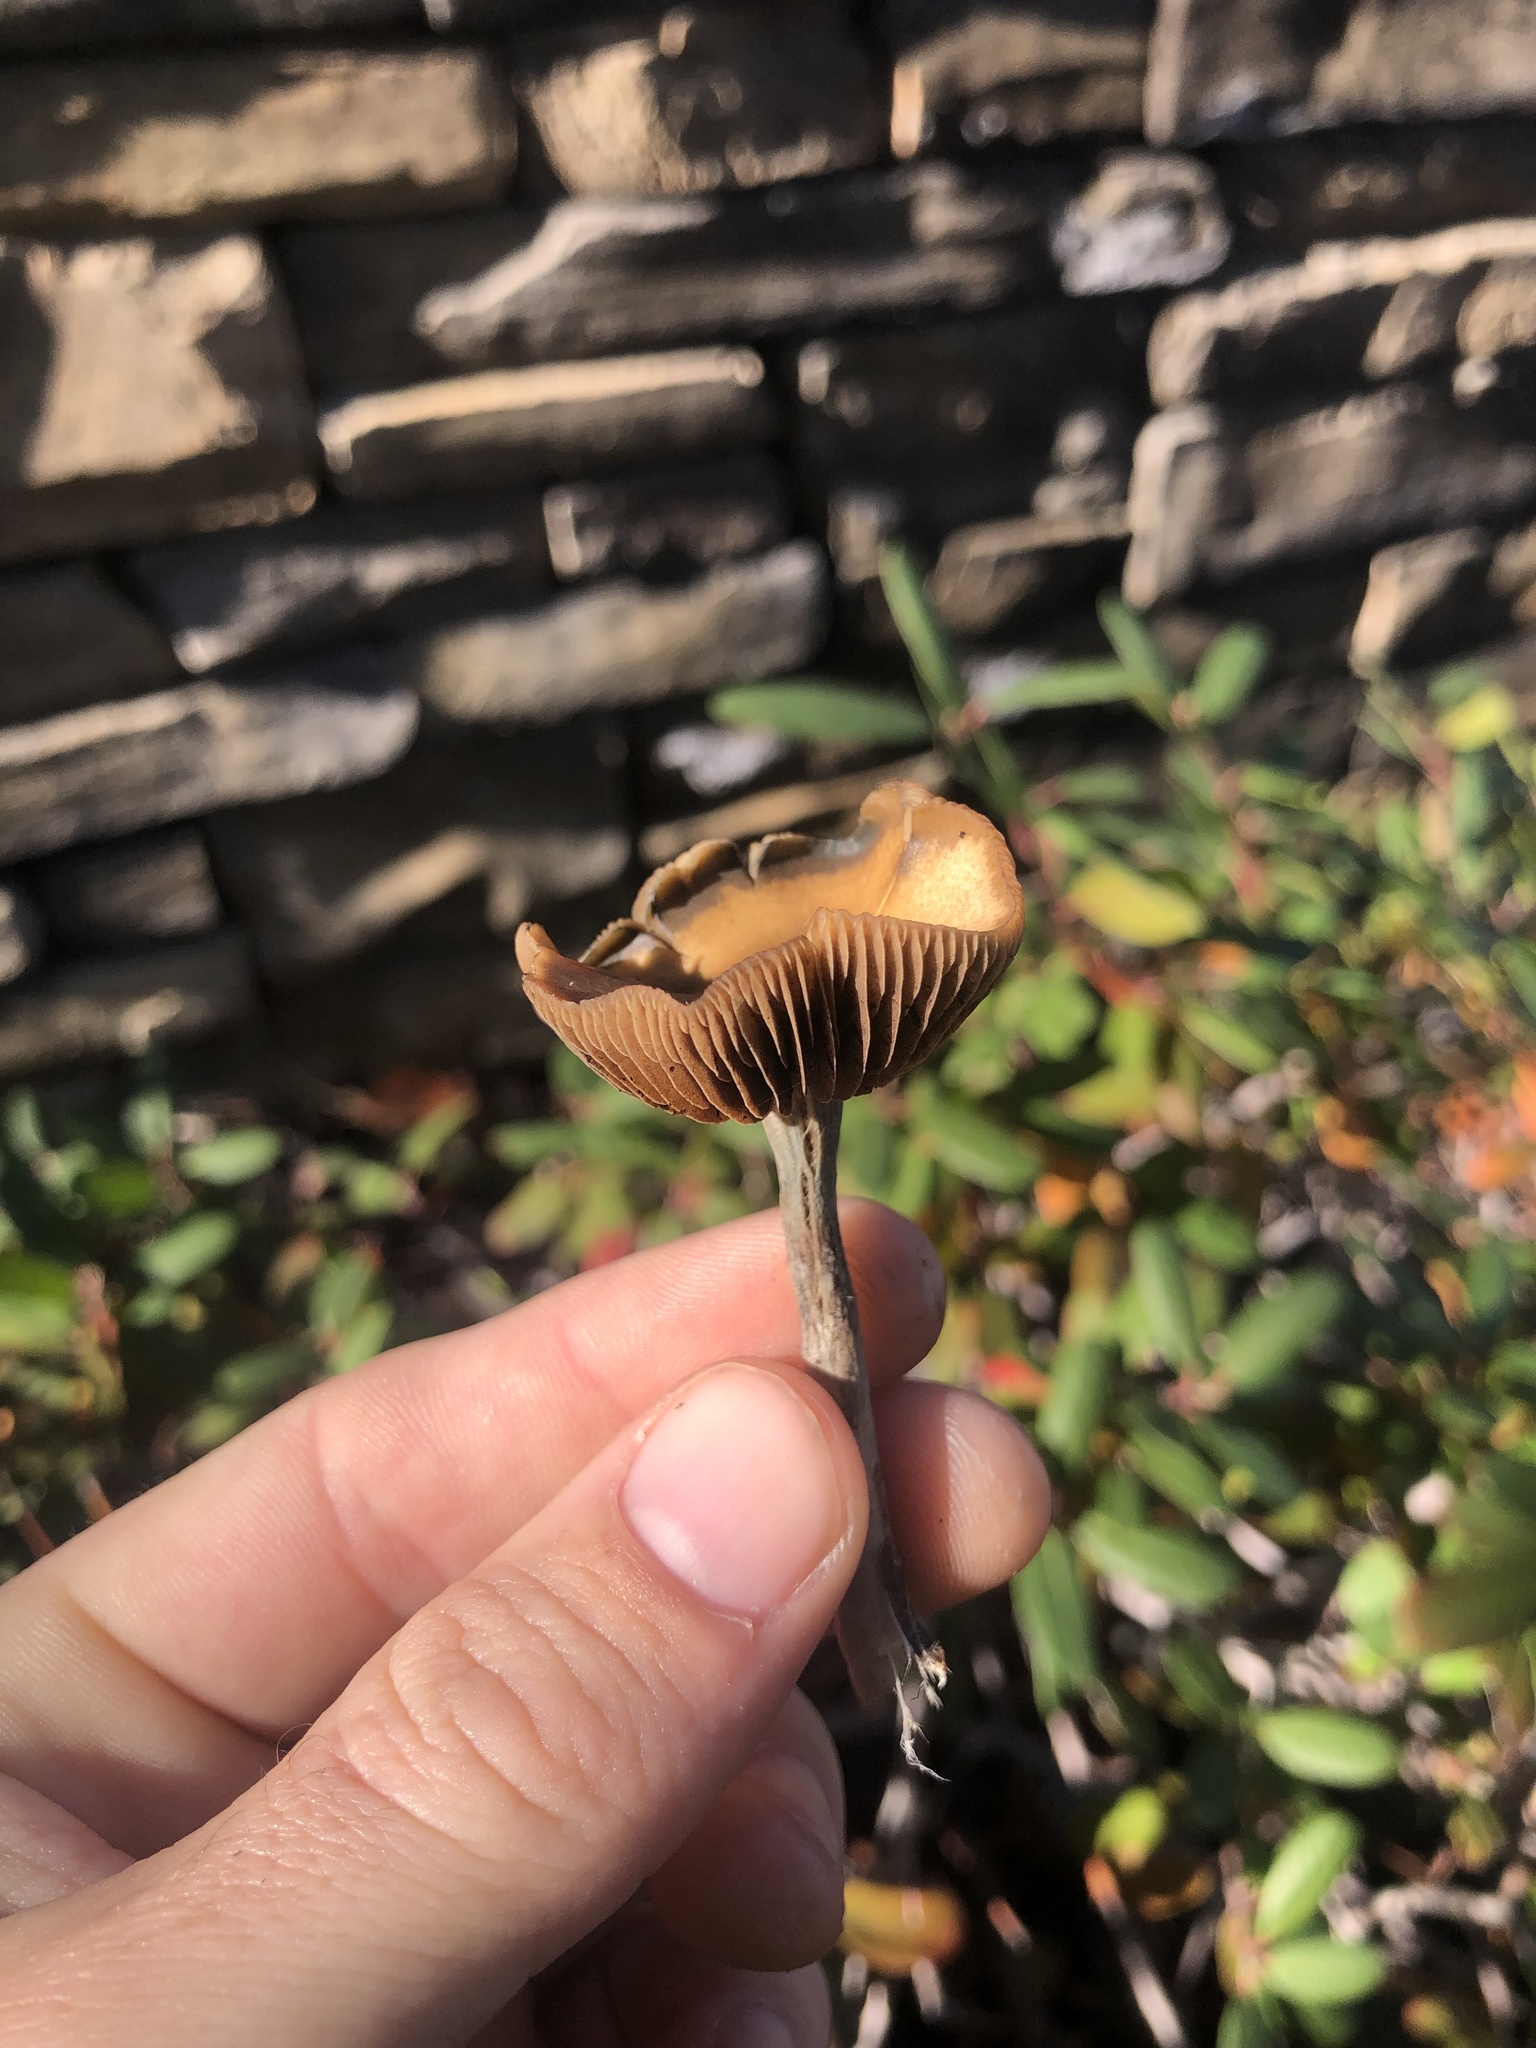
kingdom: Fungi
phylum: Basidiomycota
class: Agaricomycetes
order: Agaricales
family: Hymenogastraceae
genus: Psilocybe
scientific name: Psilocybe cyanescens
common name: Blueleg brownie
